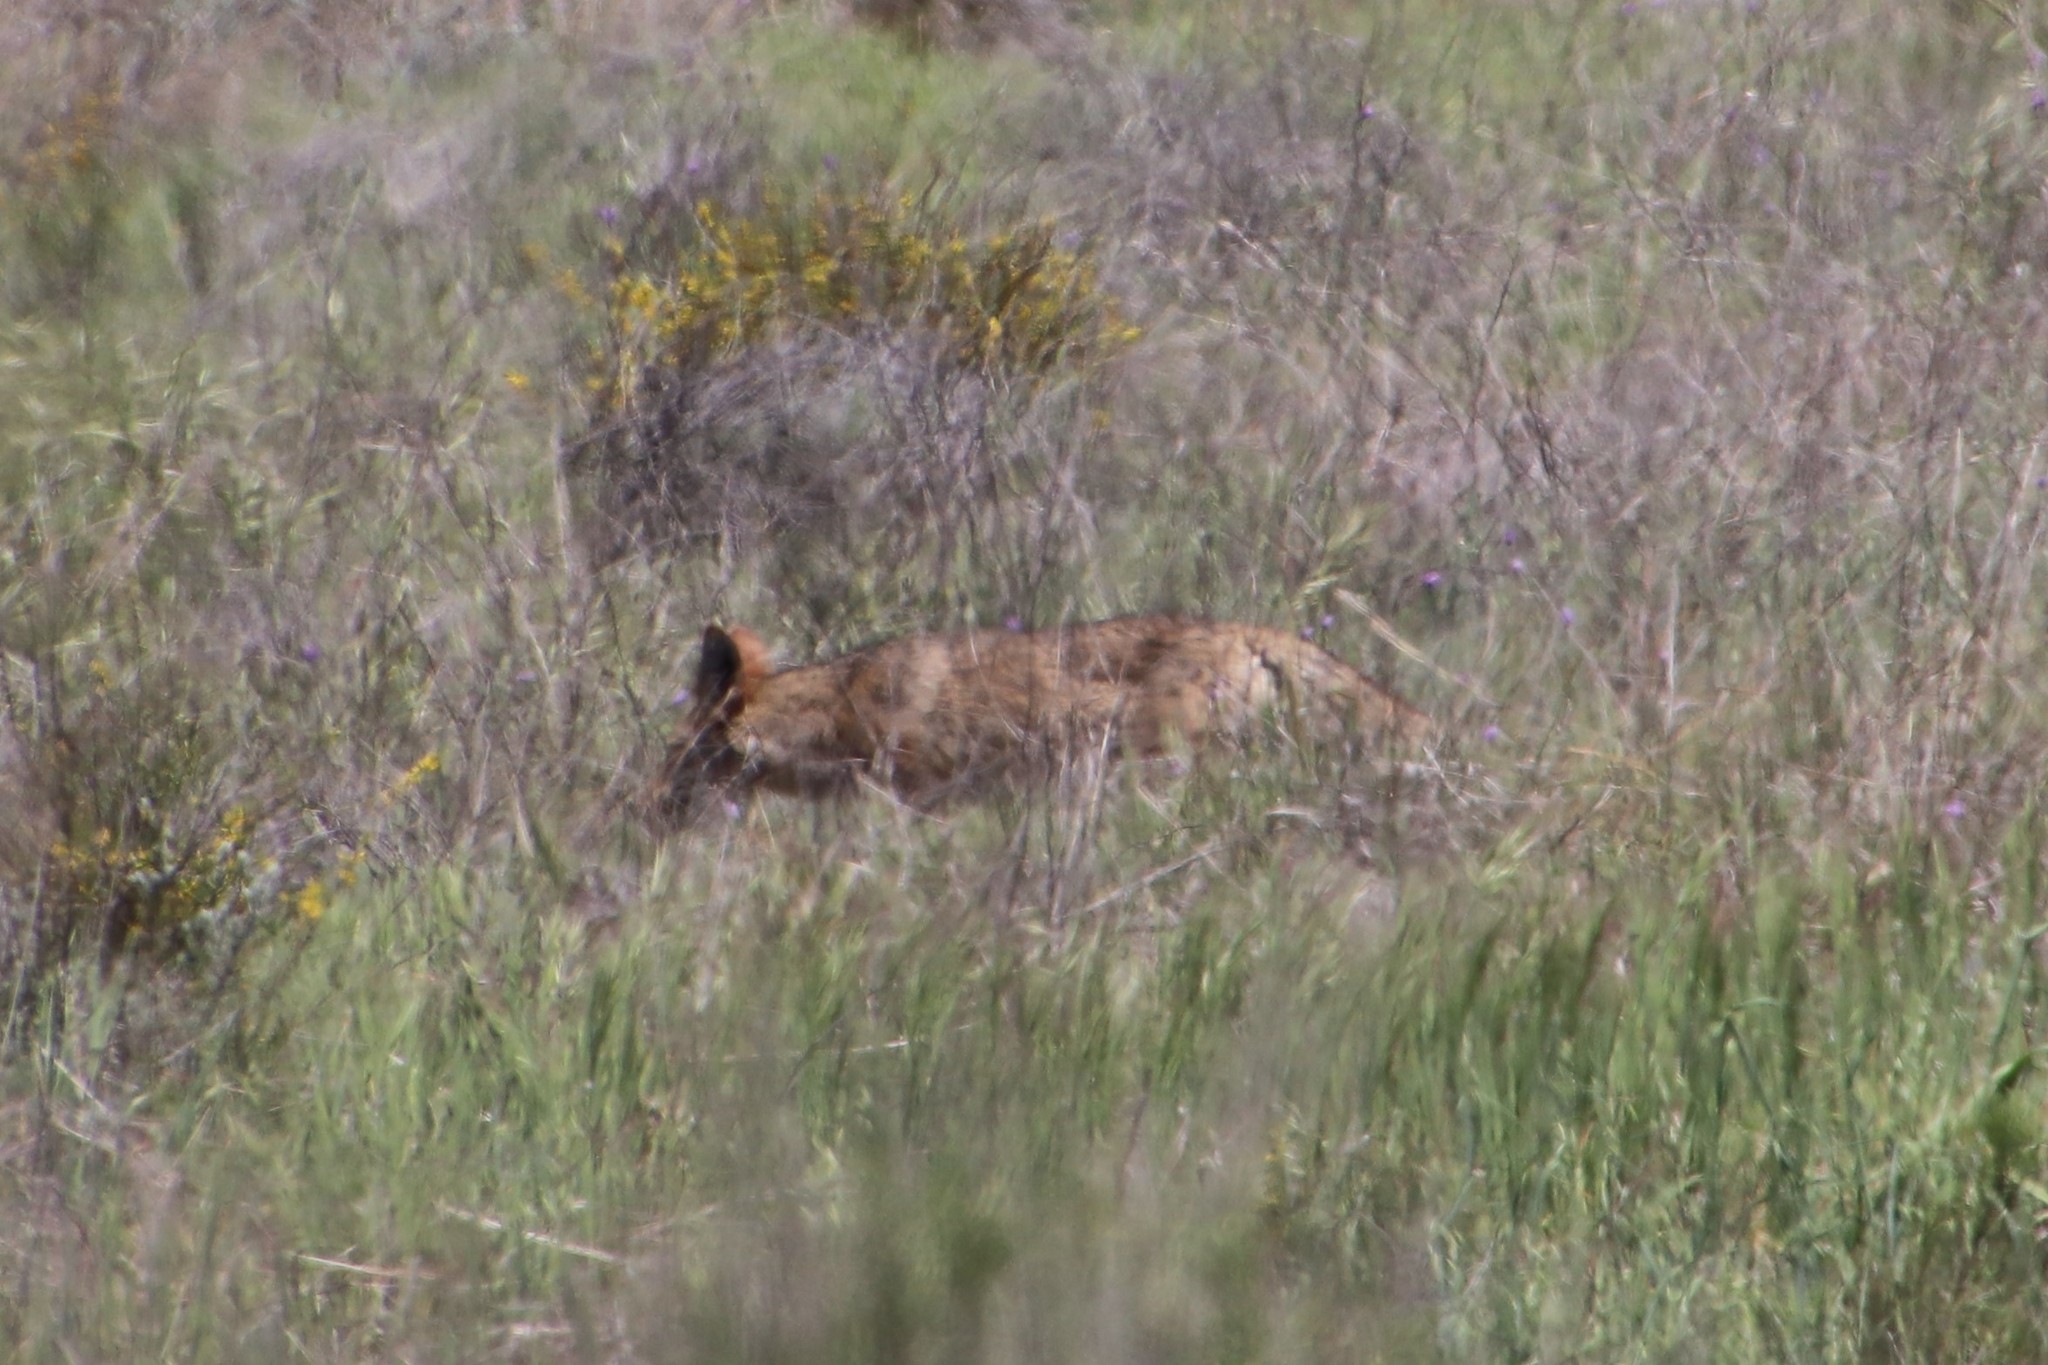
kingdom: Animalia
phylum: Chordata
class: Mammalia
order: Carnivora
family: Canidae
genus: Canis
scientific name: Canis latrans
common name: Coyote
